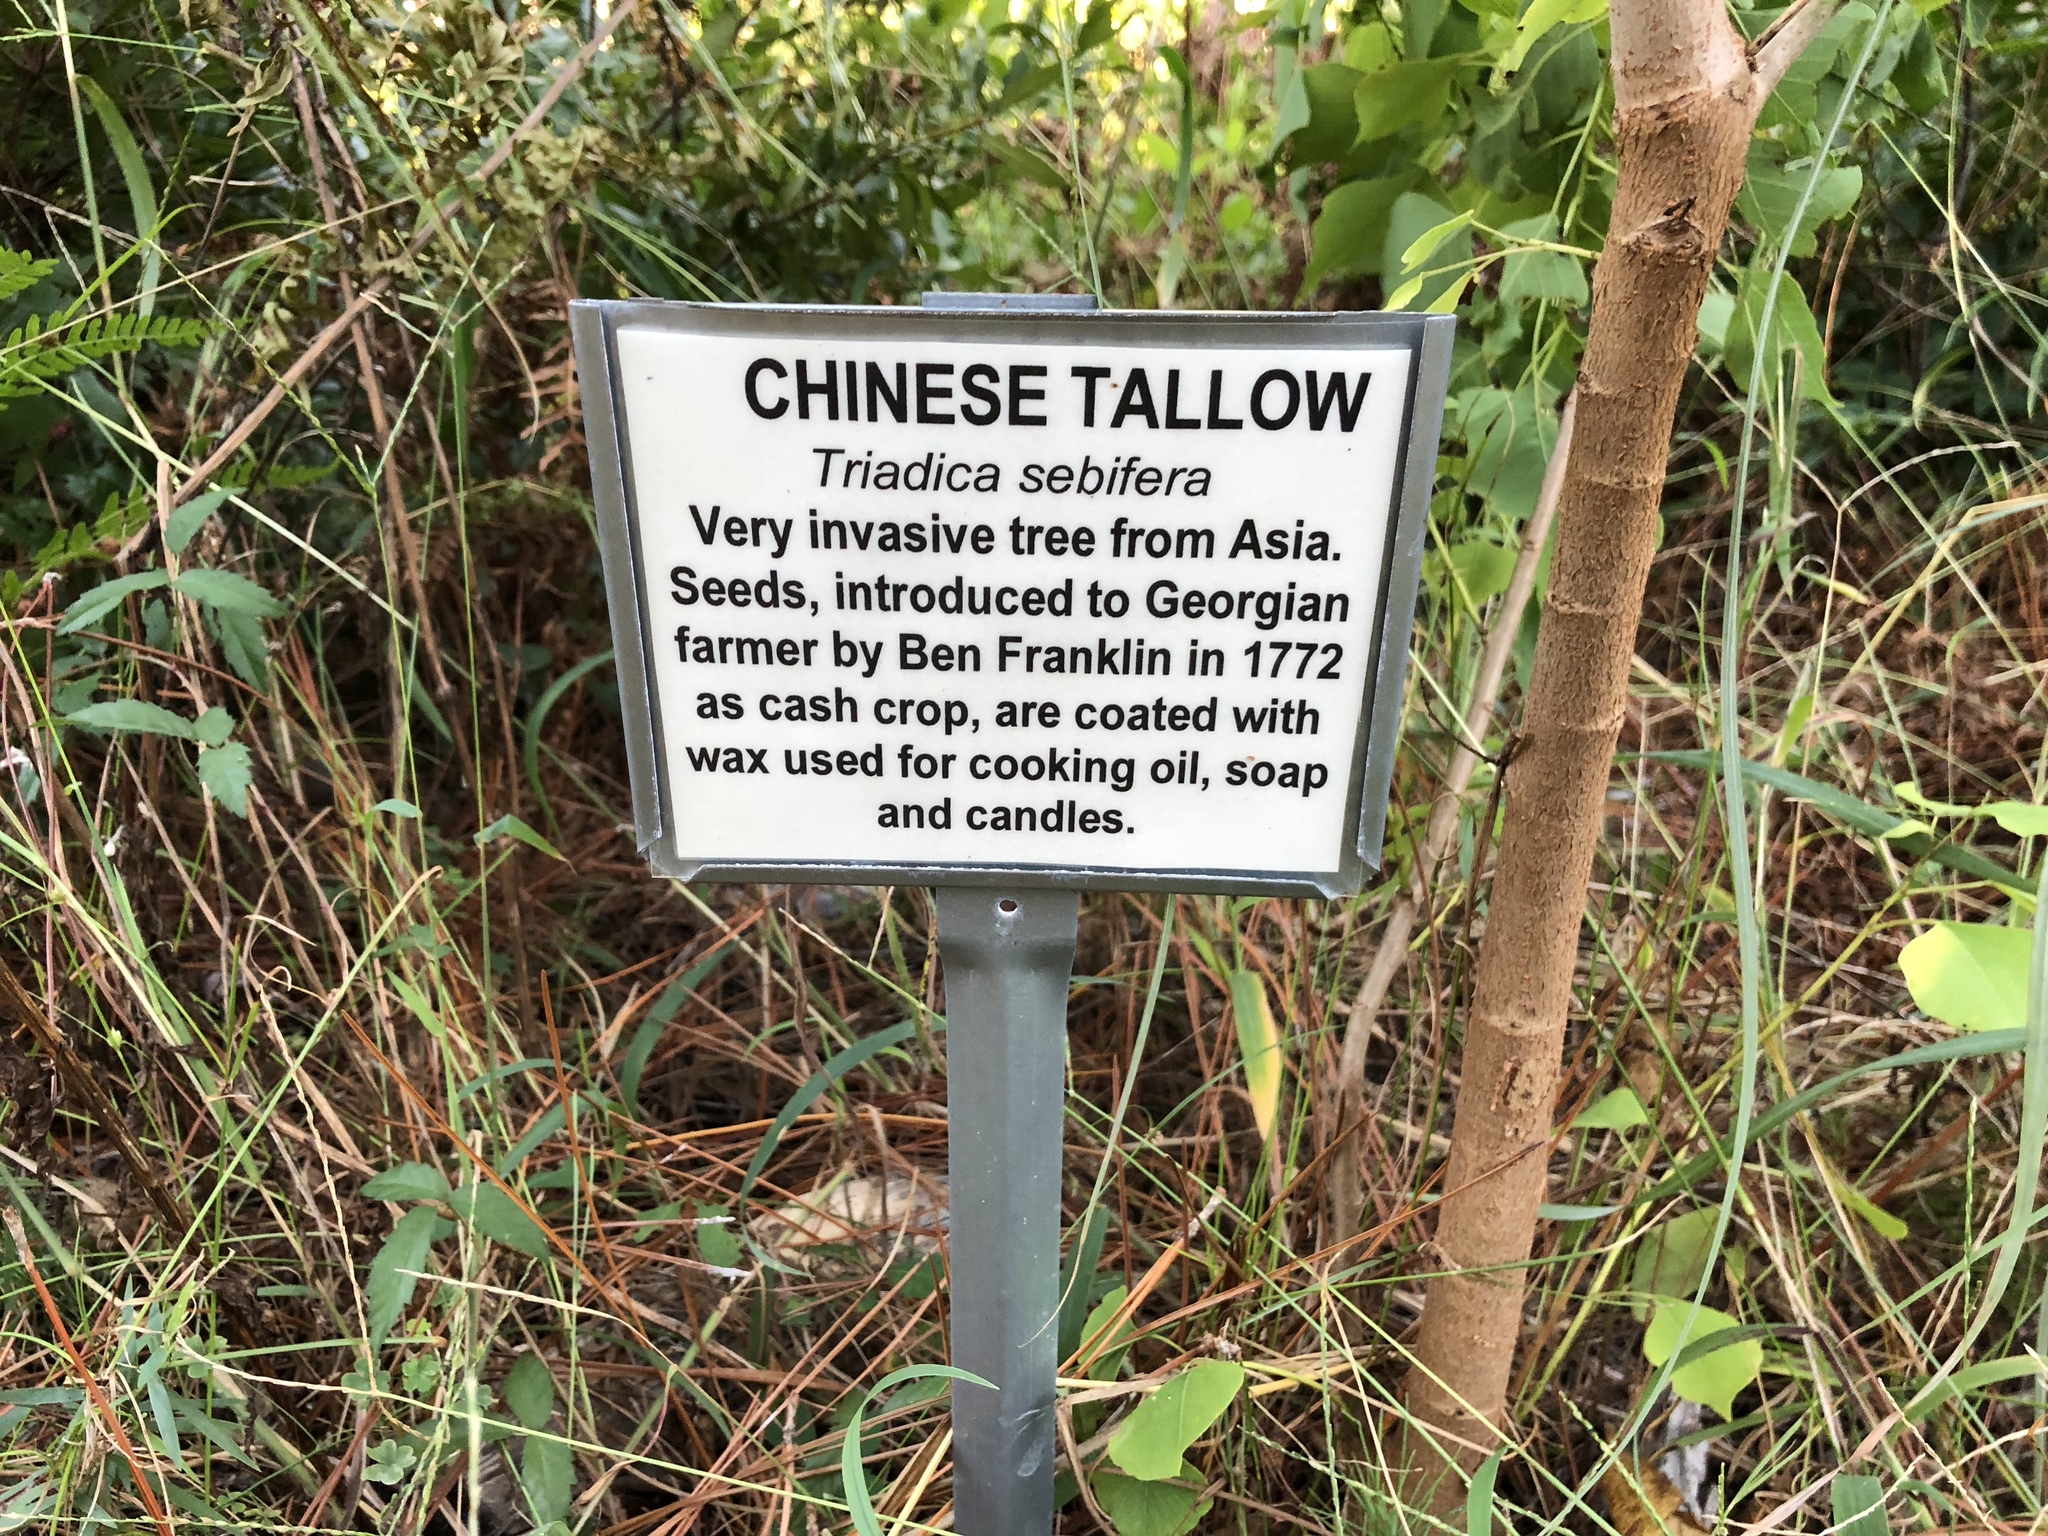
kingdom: Plantae
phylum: Tracheophyta
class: Magnoliopsida
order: Malpighiales
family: Euphorbiaceae
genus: Triadica
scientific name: Triadica sebifera
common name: Chinese tallow
